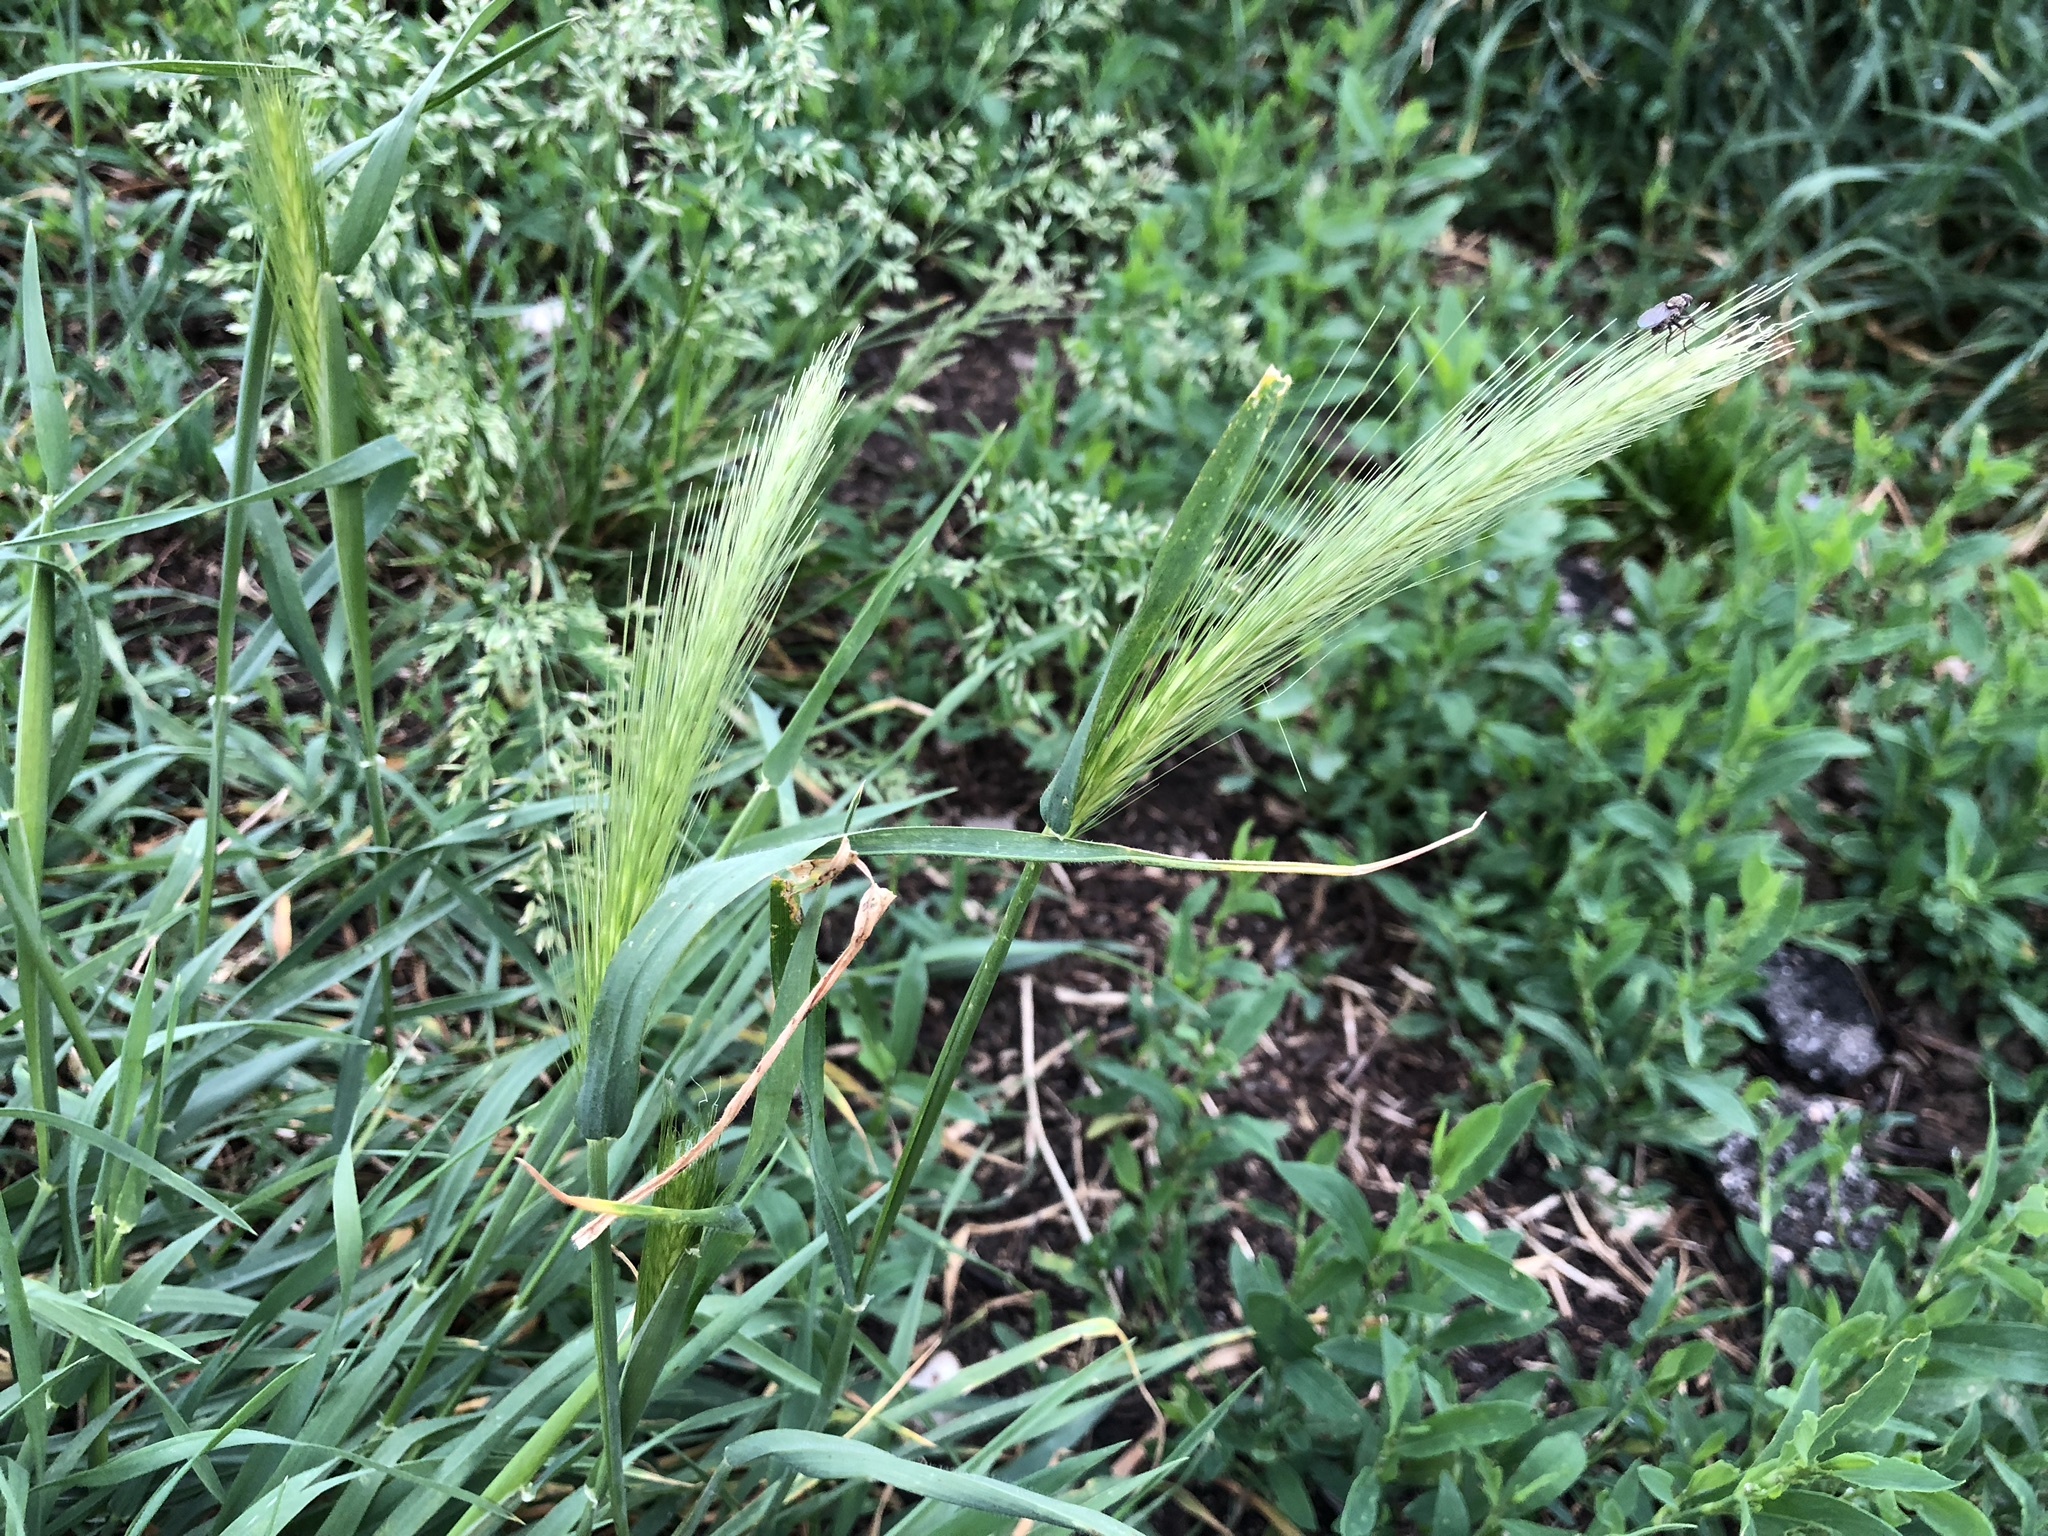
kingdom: Plantae
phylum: Tracheophyta
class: Liliopsida
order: Poales
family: Poaceae
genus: Hordeum
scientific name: Hordeum murinum
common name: Wall barley
